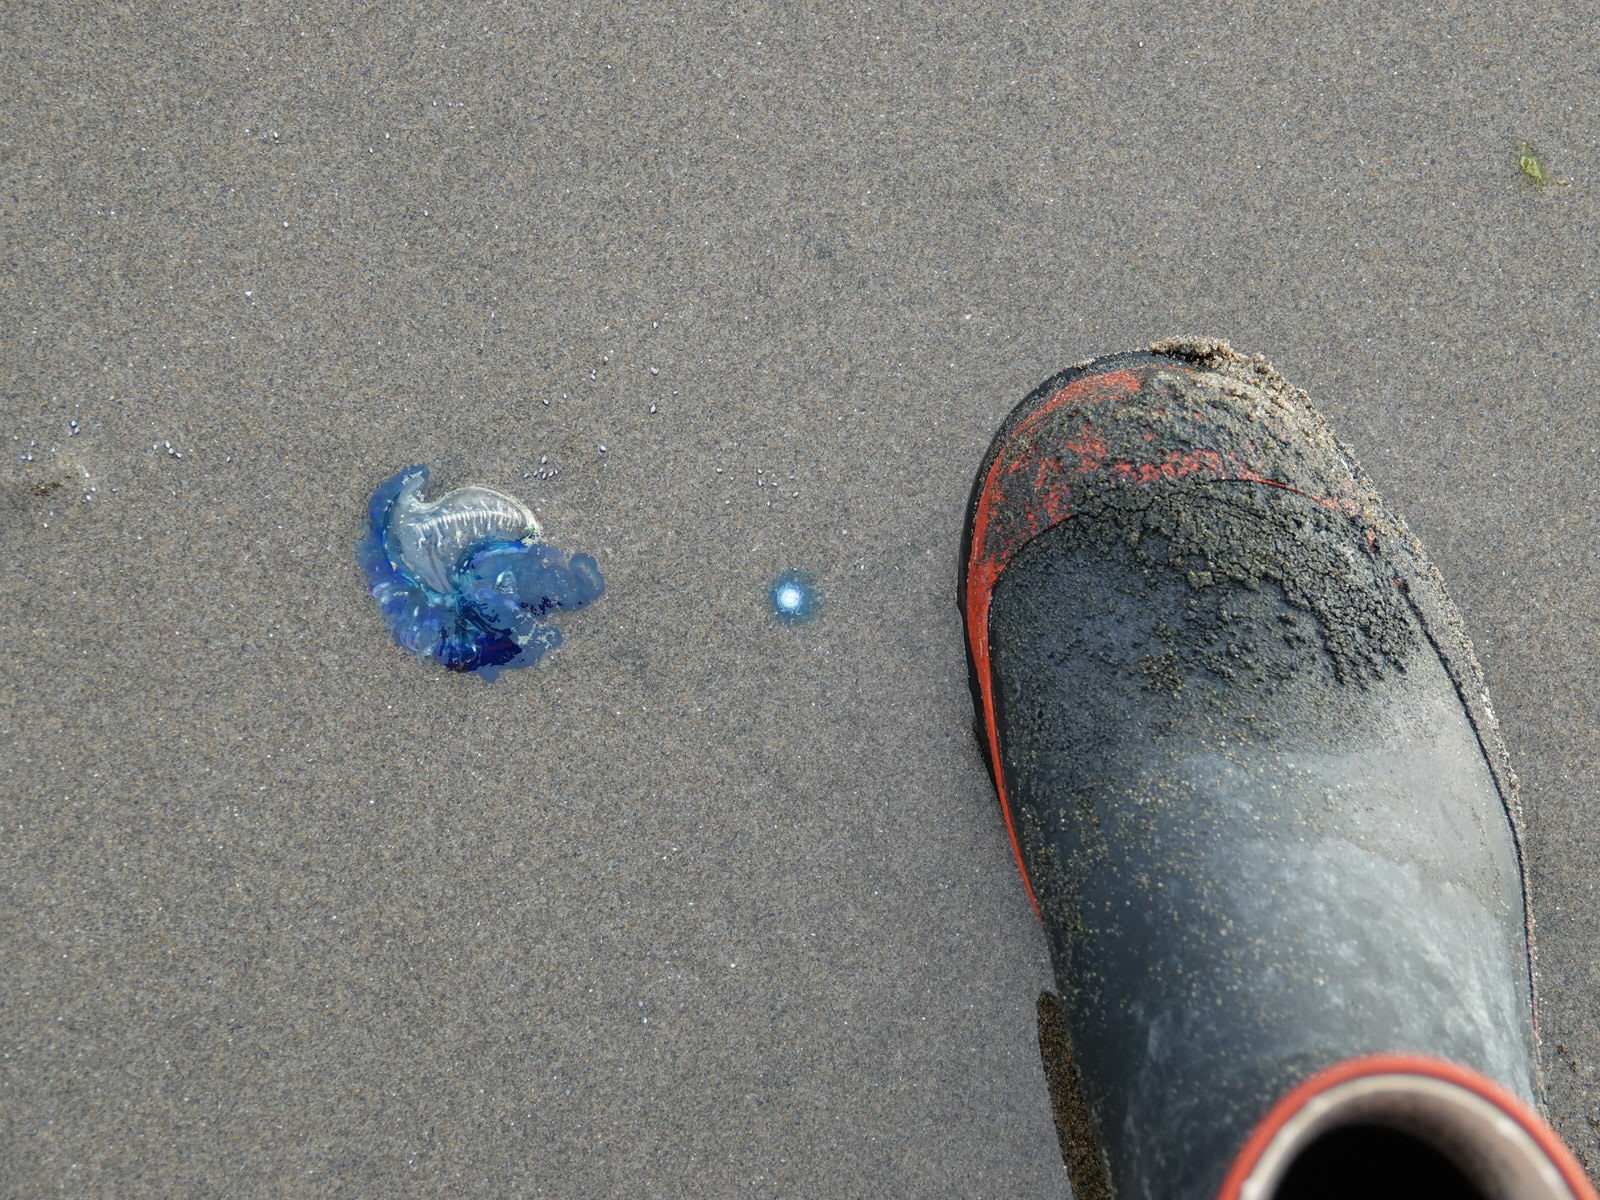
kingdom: Animalia
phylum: Cnidaria
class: Hydrozoa
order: Anthoathecata
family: Porpitidae
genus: Porpita
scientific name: Porpita porpita
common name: Blue button
